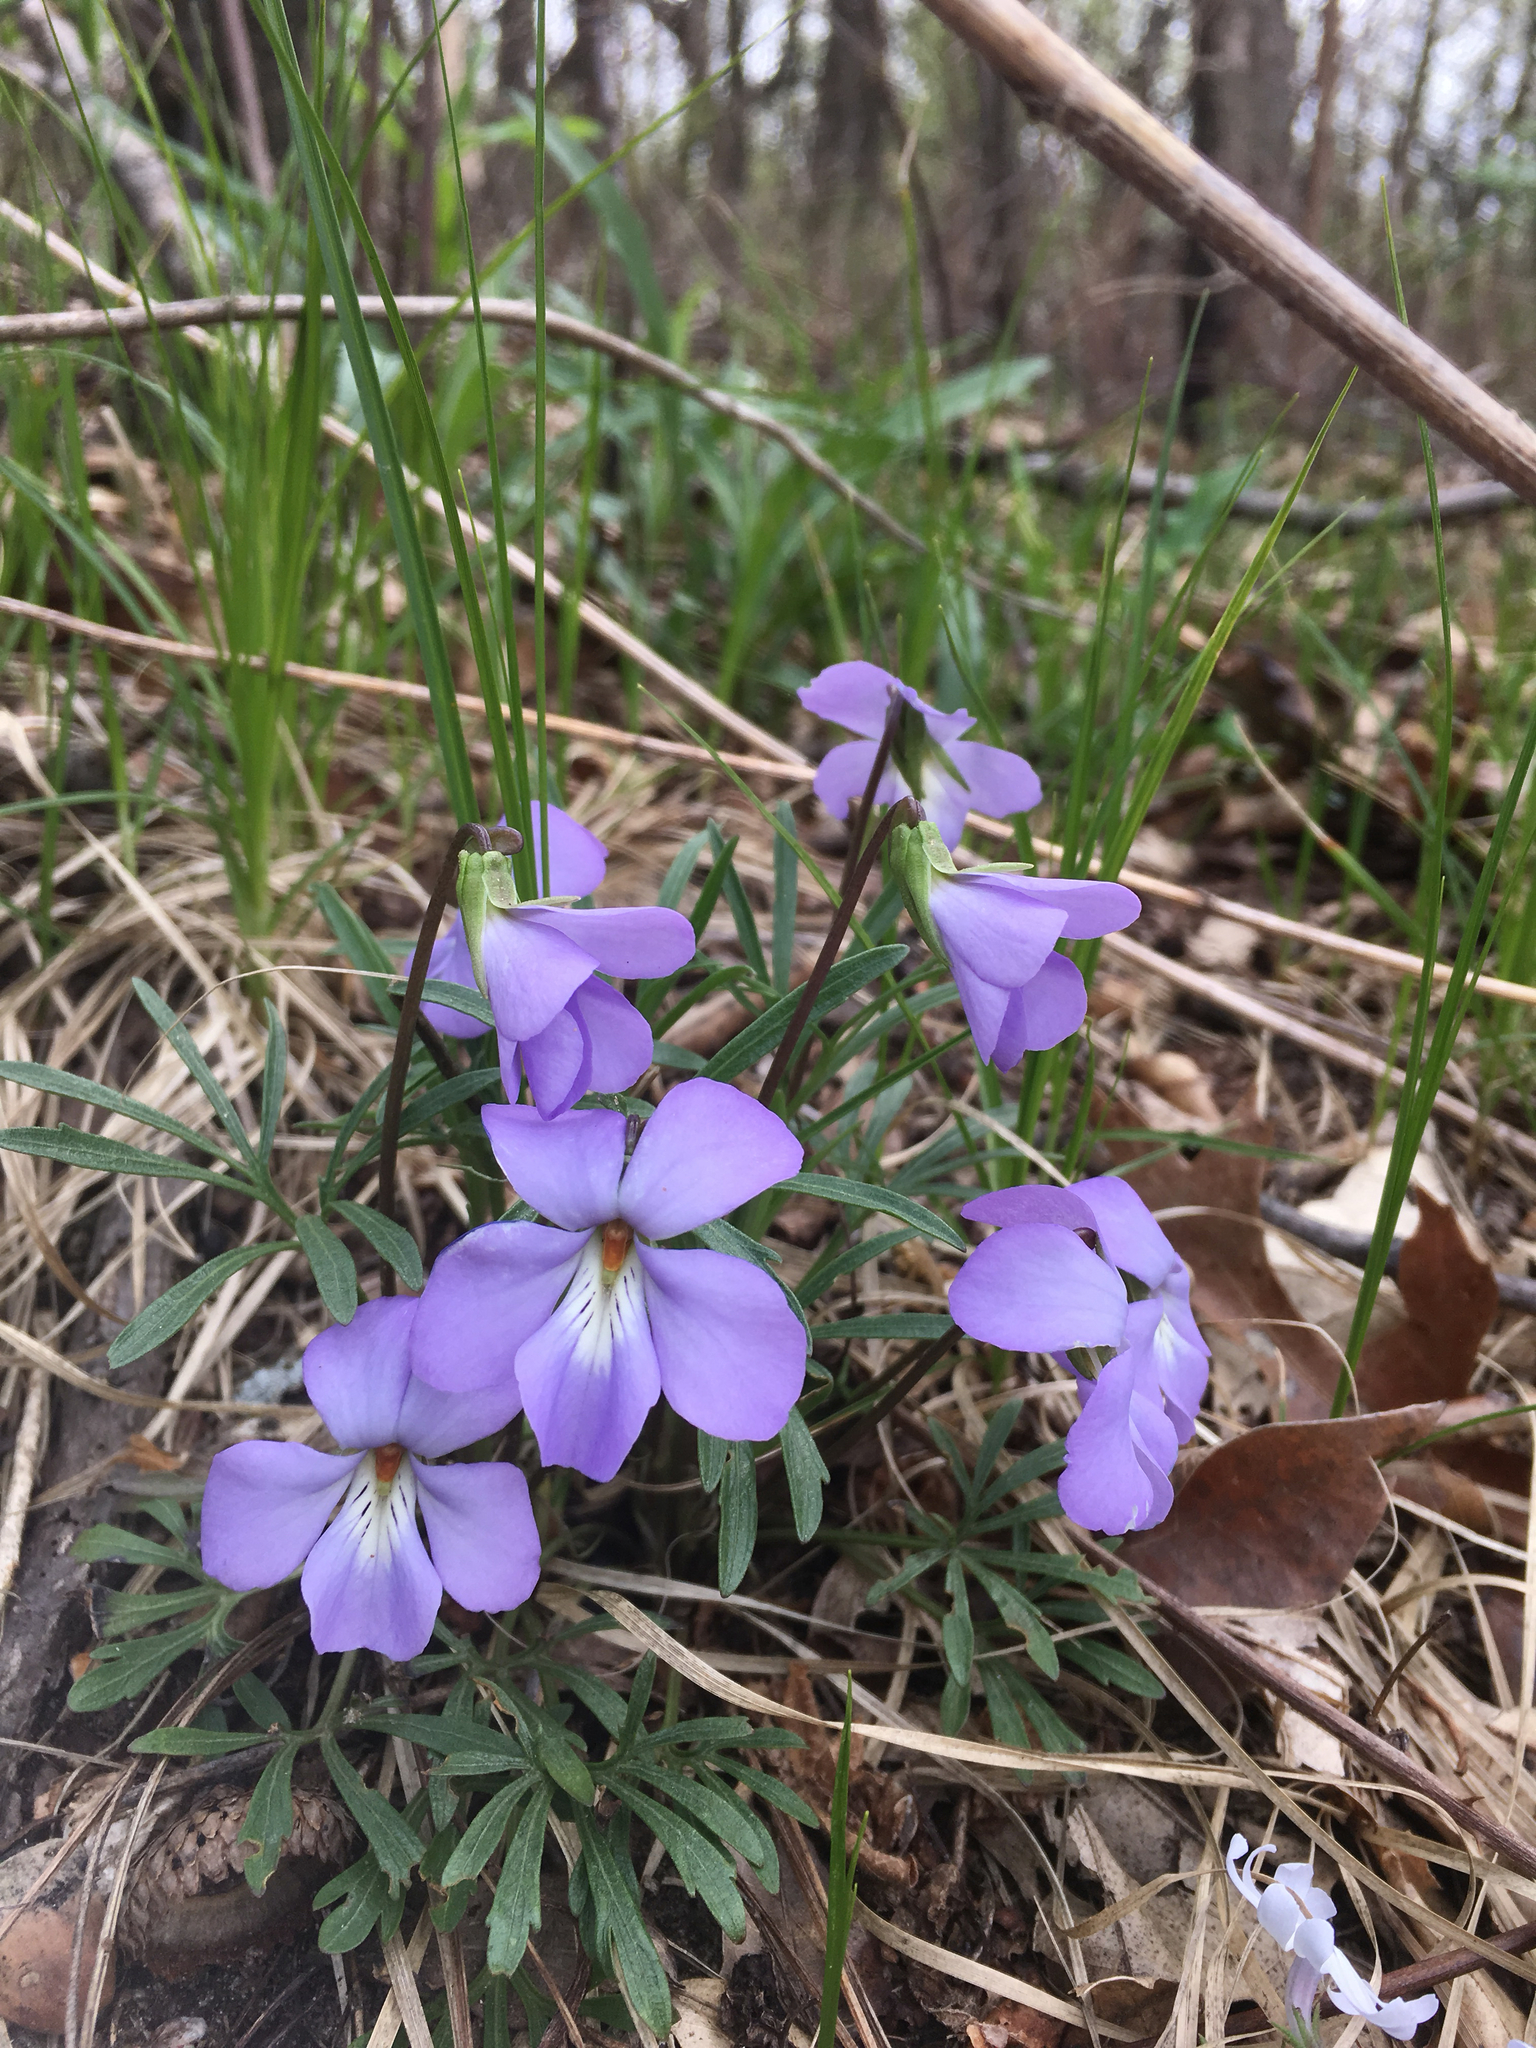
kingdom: Plantae
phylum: Tracheophyta
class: Magnoliopsida
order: Malpighiales
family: Violaceae
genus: Viola
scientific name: Viola pedata
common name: Pansy violet
